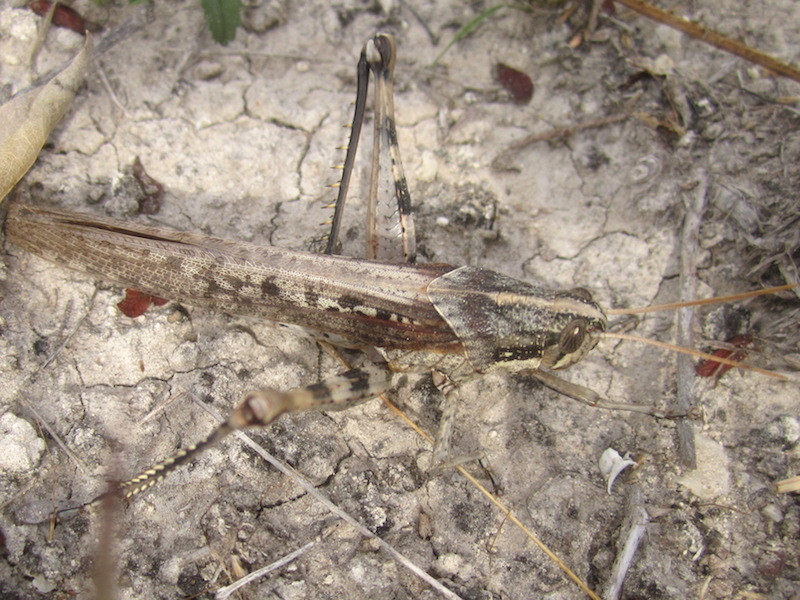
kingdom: Animalia
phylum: Arthropoda
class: Insecta
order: Orthoptera
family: Acrididae
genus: Schistocerca
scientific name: Schistocerca nitens
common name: Vagrant grasshopper
